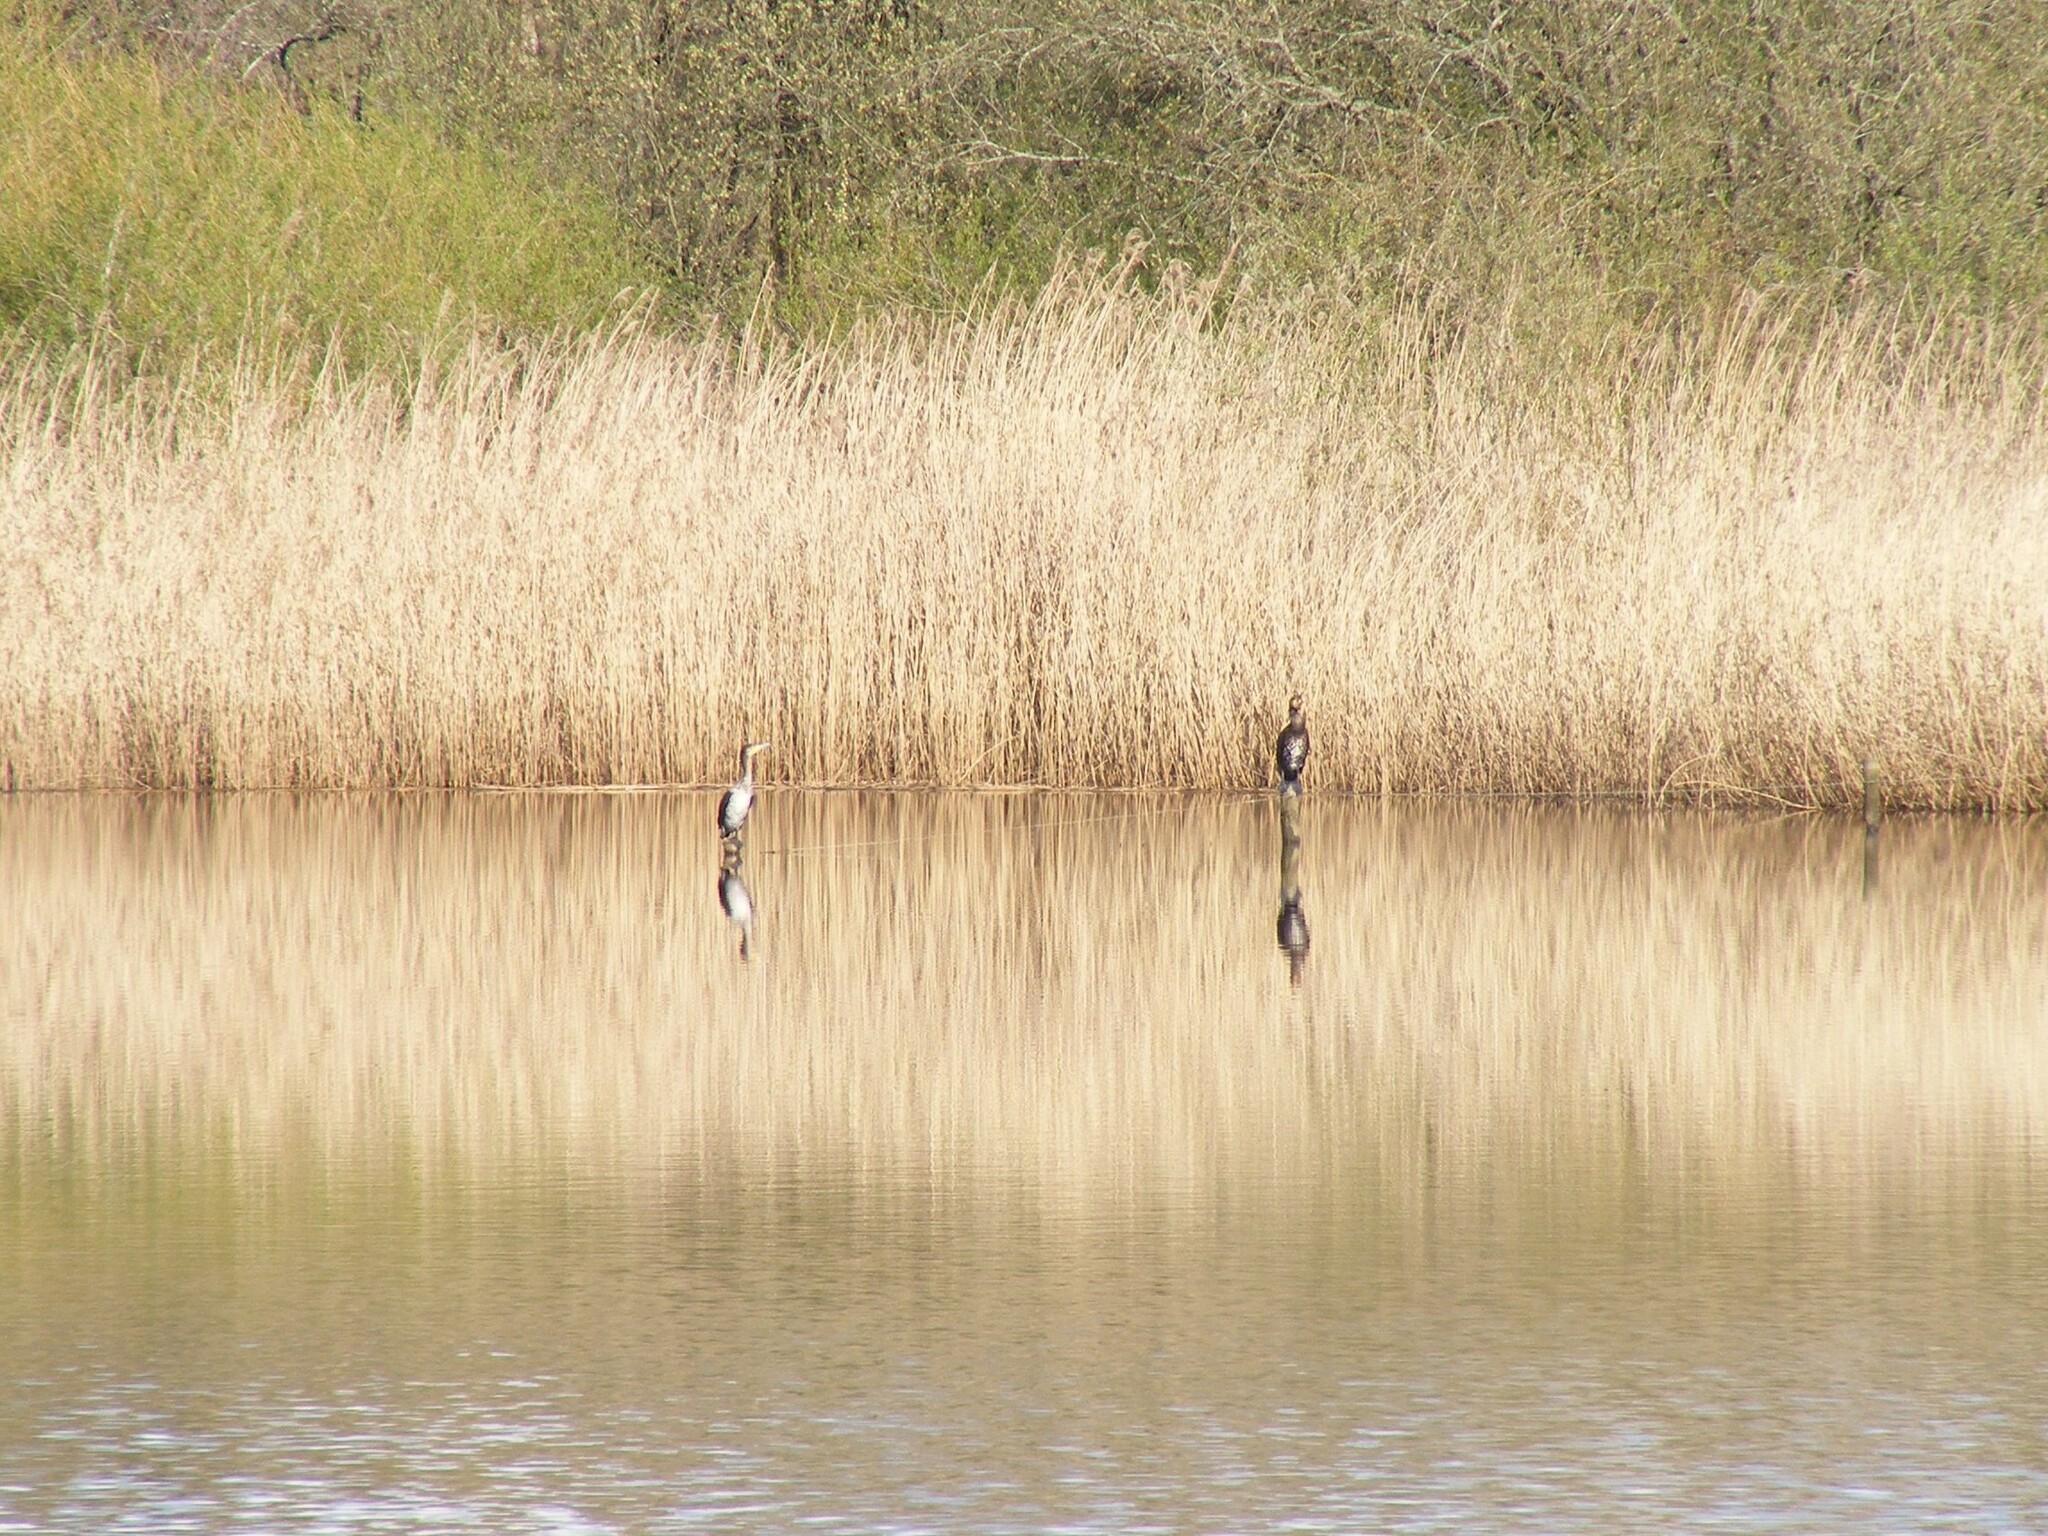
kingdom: Animalia
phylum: Chordata
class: Aves
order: Suliformes
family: Phalacrocoracidae
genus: Phalacrocorax
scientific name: Phalacrocorax carbo
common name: Great cormorant
